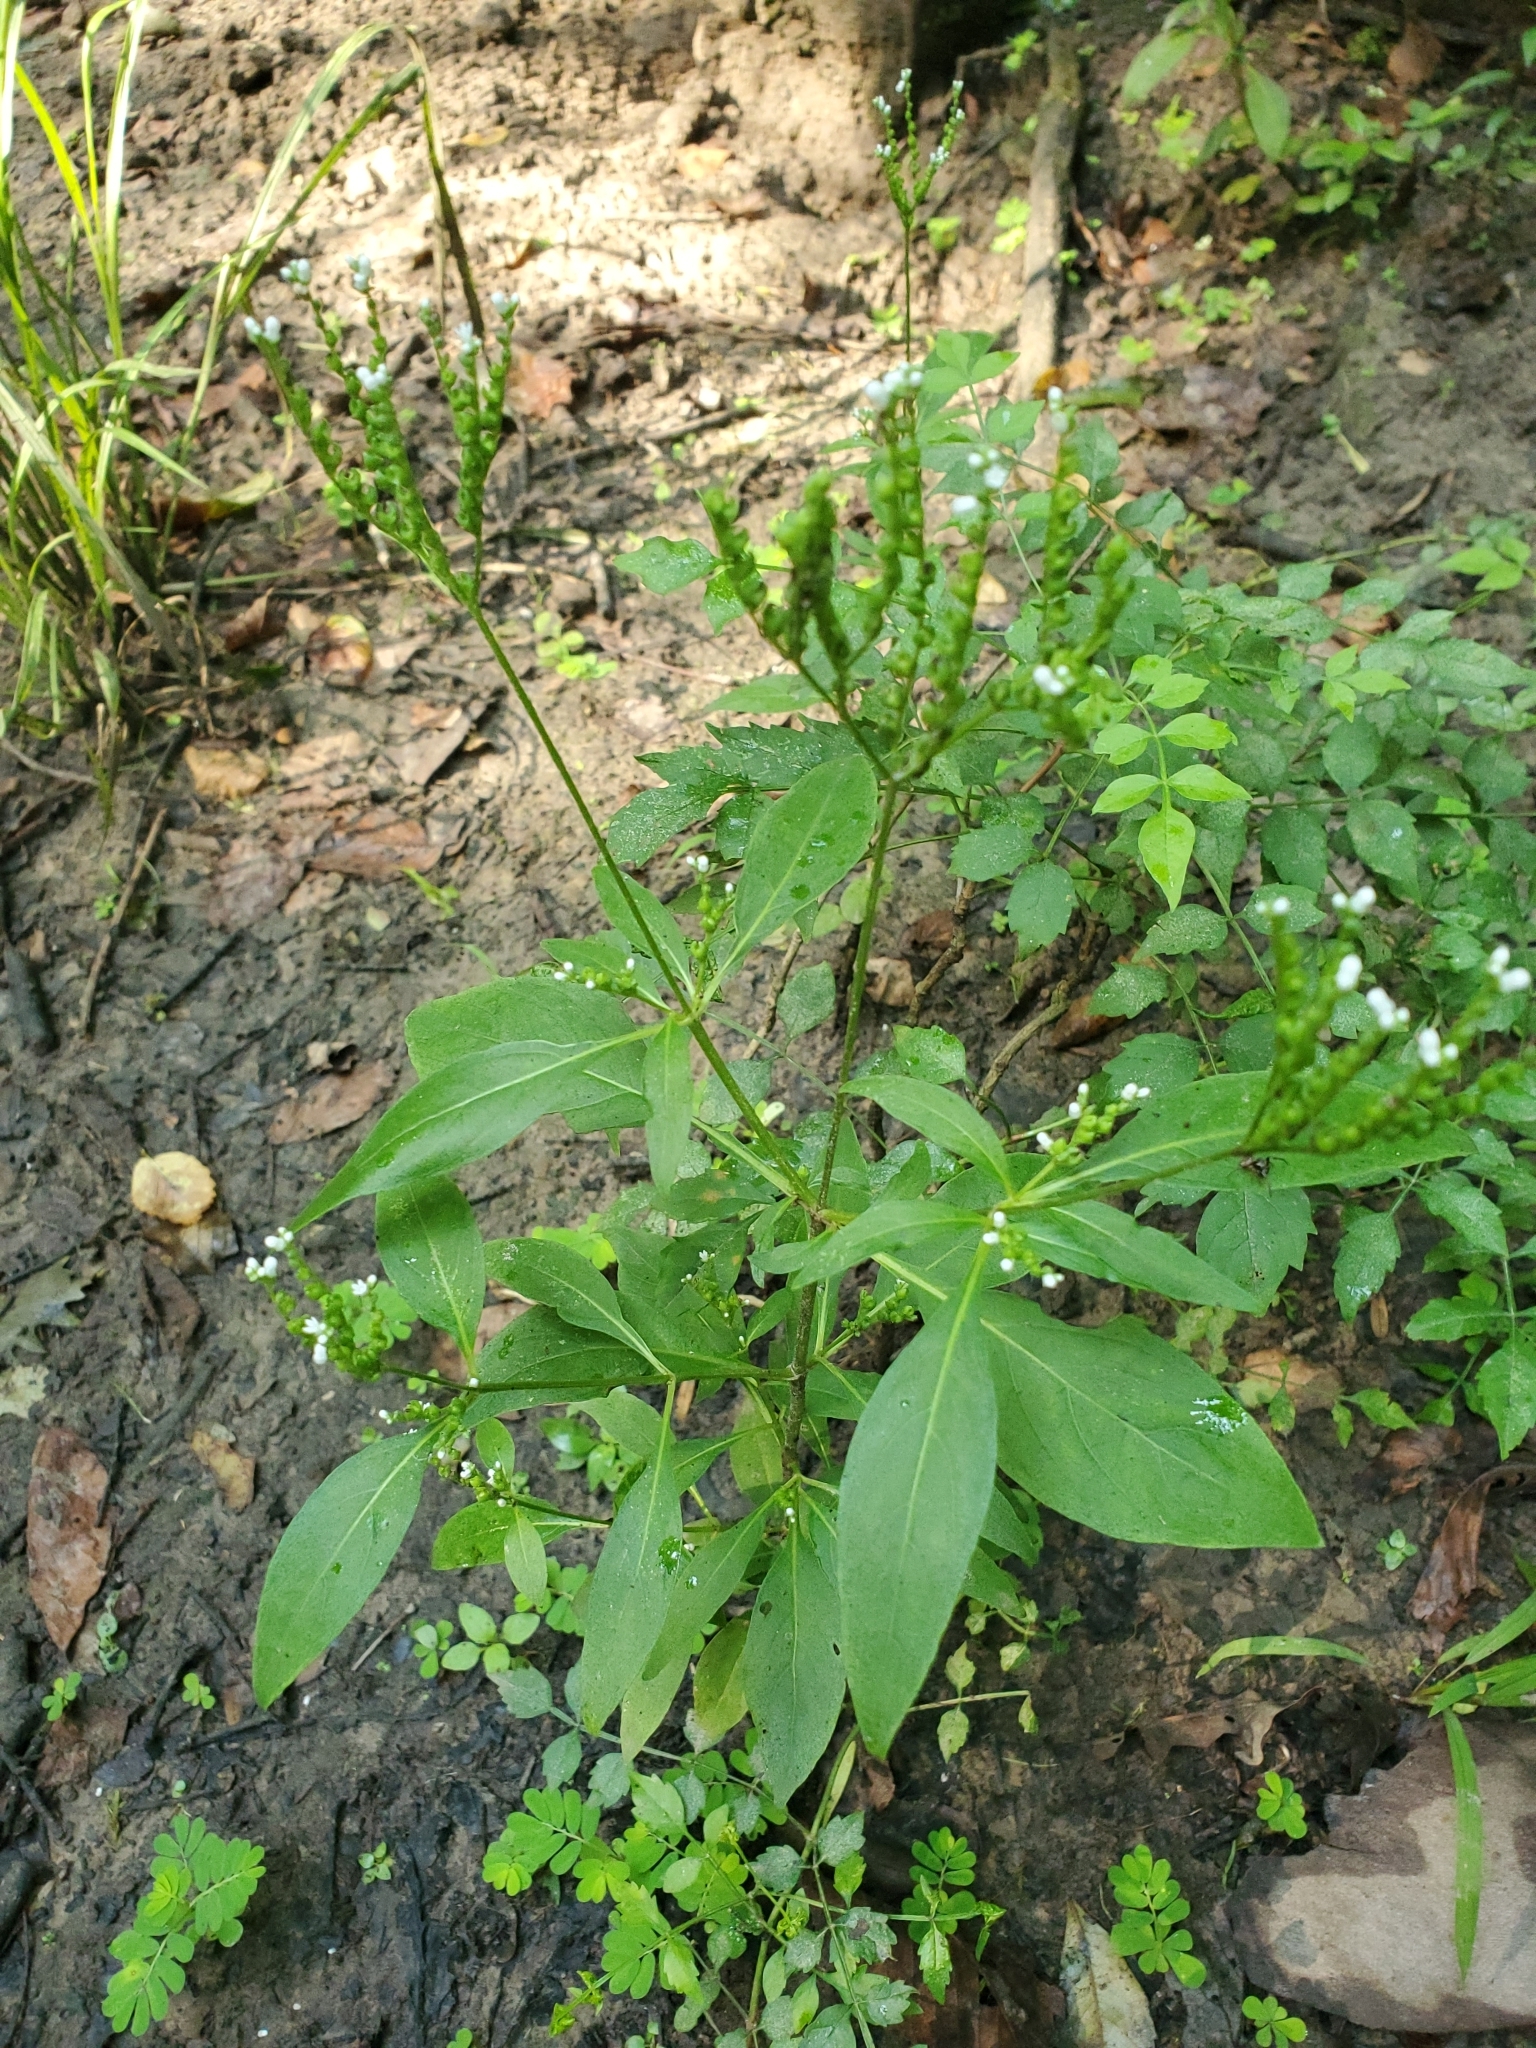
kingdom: Plantae
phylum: Tracheophyta
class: Magnoliopsida
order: Gentianales
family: Loganiaceae
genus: Mitreola
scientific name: Mitreola petiolata
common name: Lax hornpod
